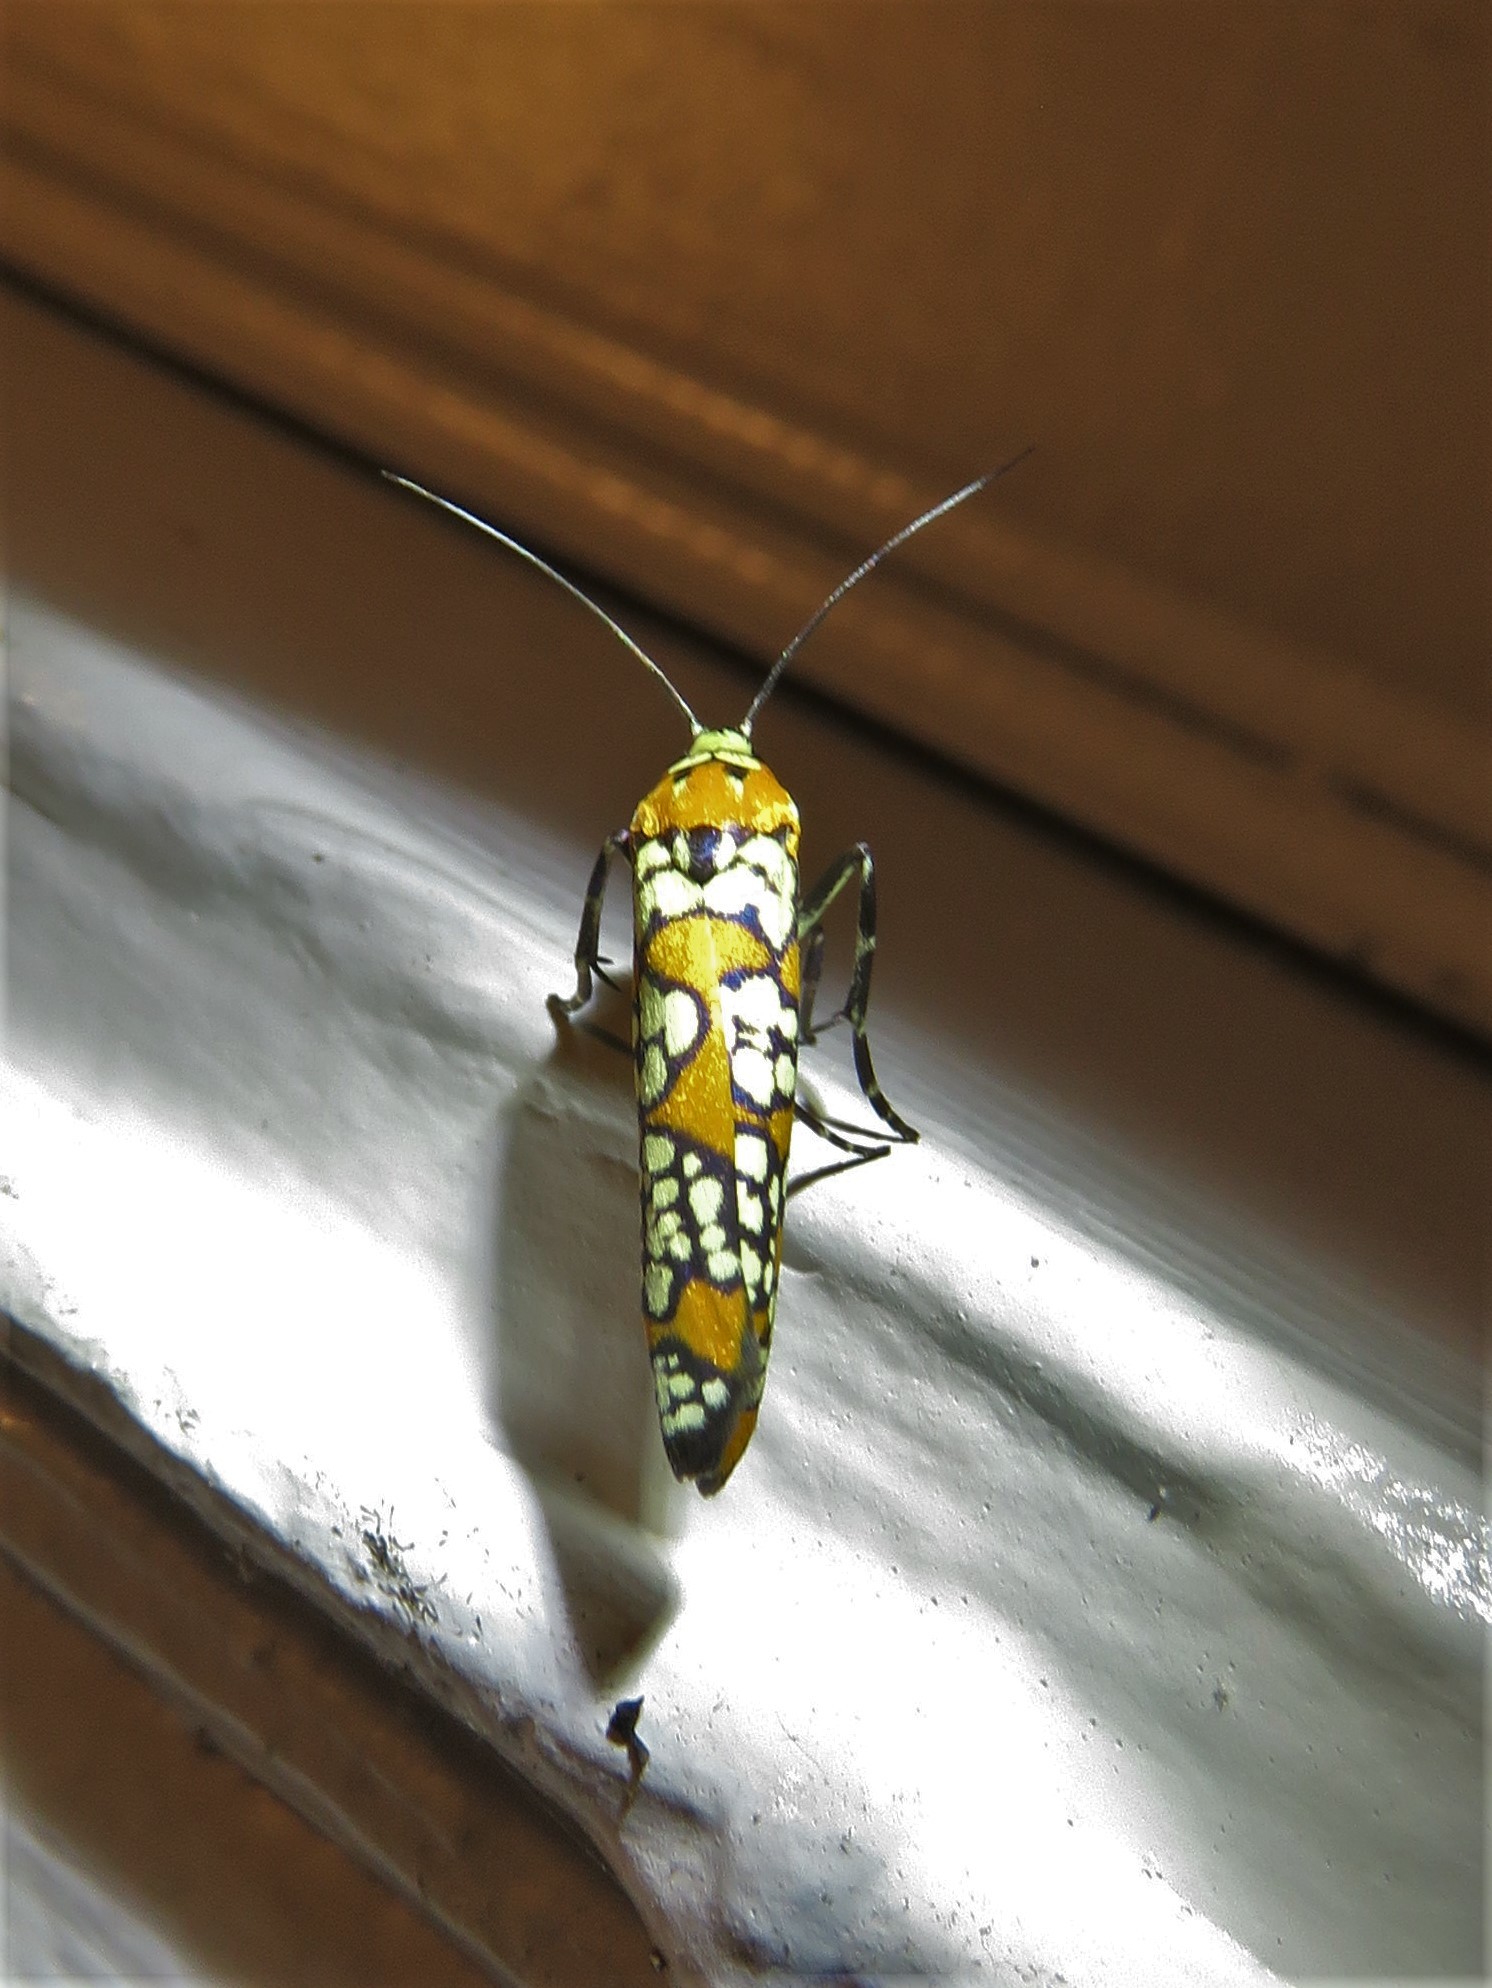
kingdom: Animalia
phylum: Arthropoda
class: Insecta
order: Lepidoptera
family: Attevidae
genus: Atteva
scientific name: Atteva punctella
